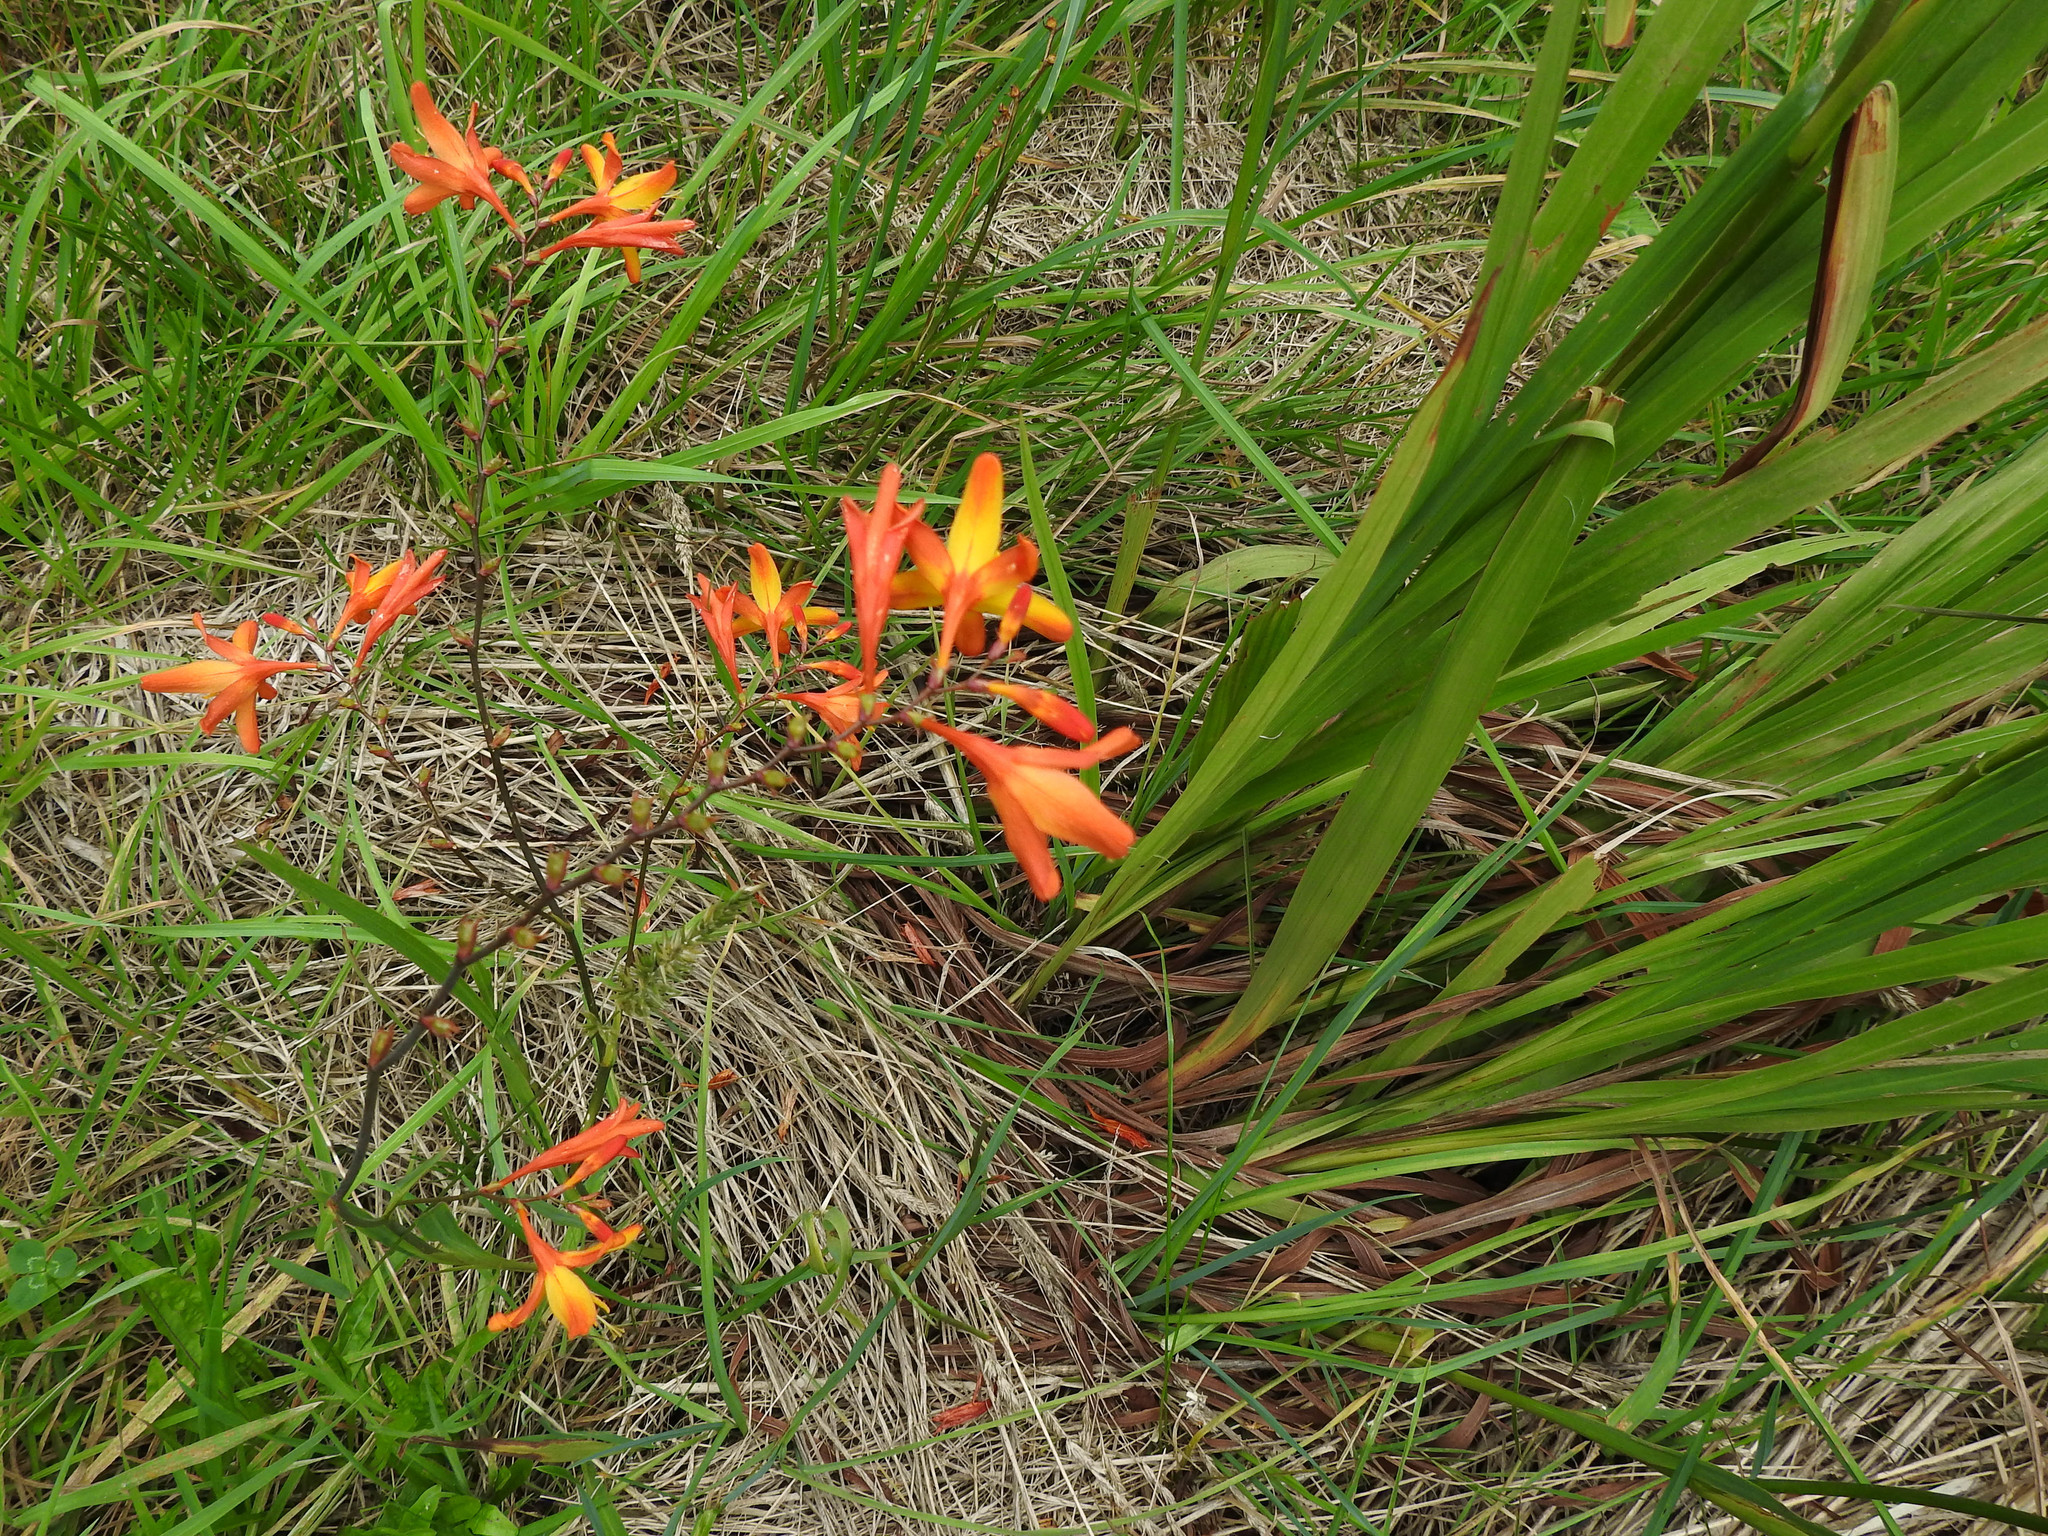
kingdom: Plantae
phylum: Tracheophyta
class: Liliopsida
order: Asparagales
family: Iridaceae
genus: Crocosmia
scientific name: Crocosmia crocosmiiflora
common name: Montbretia
